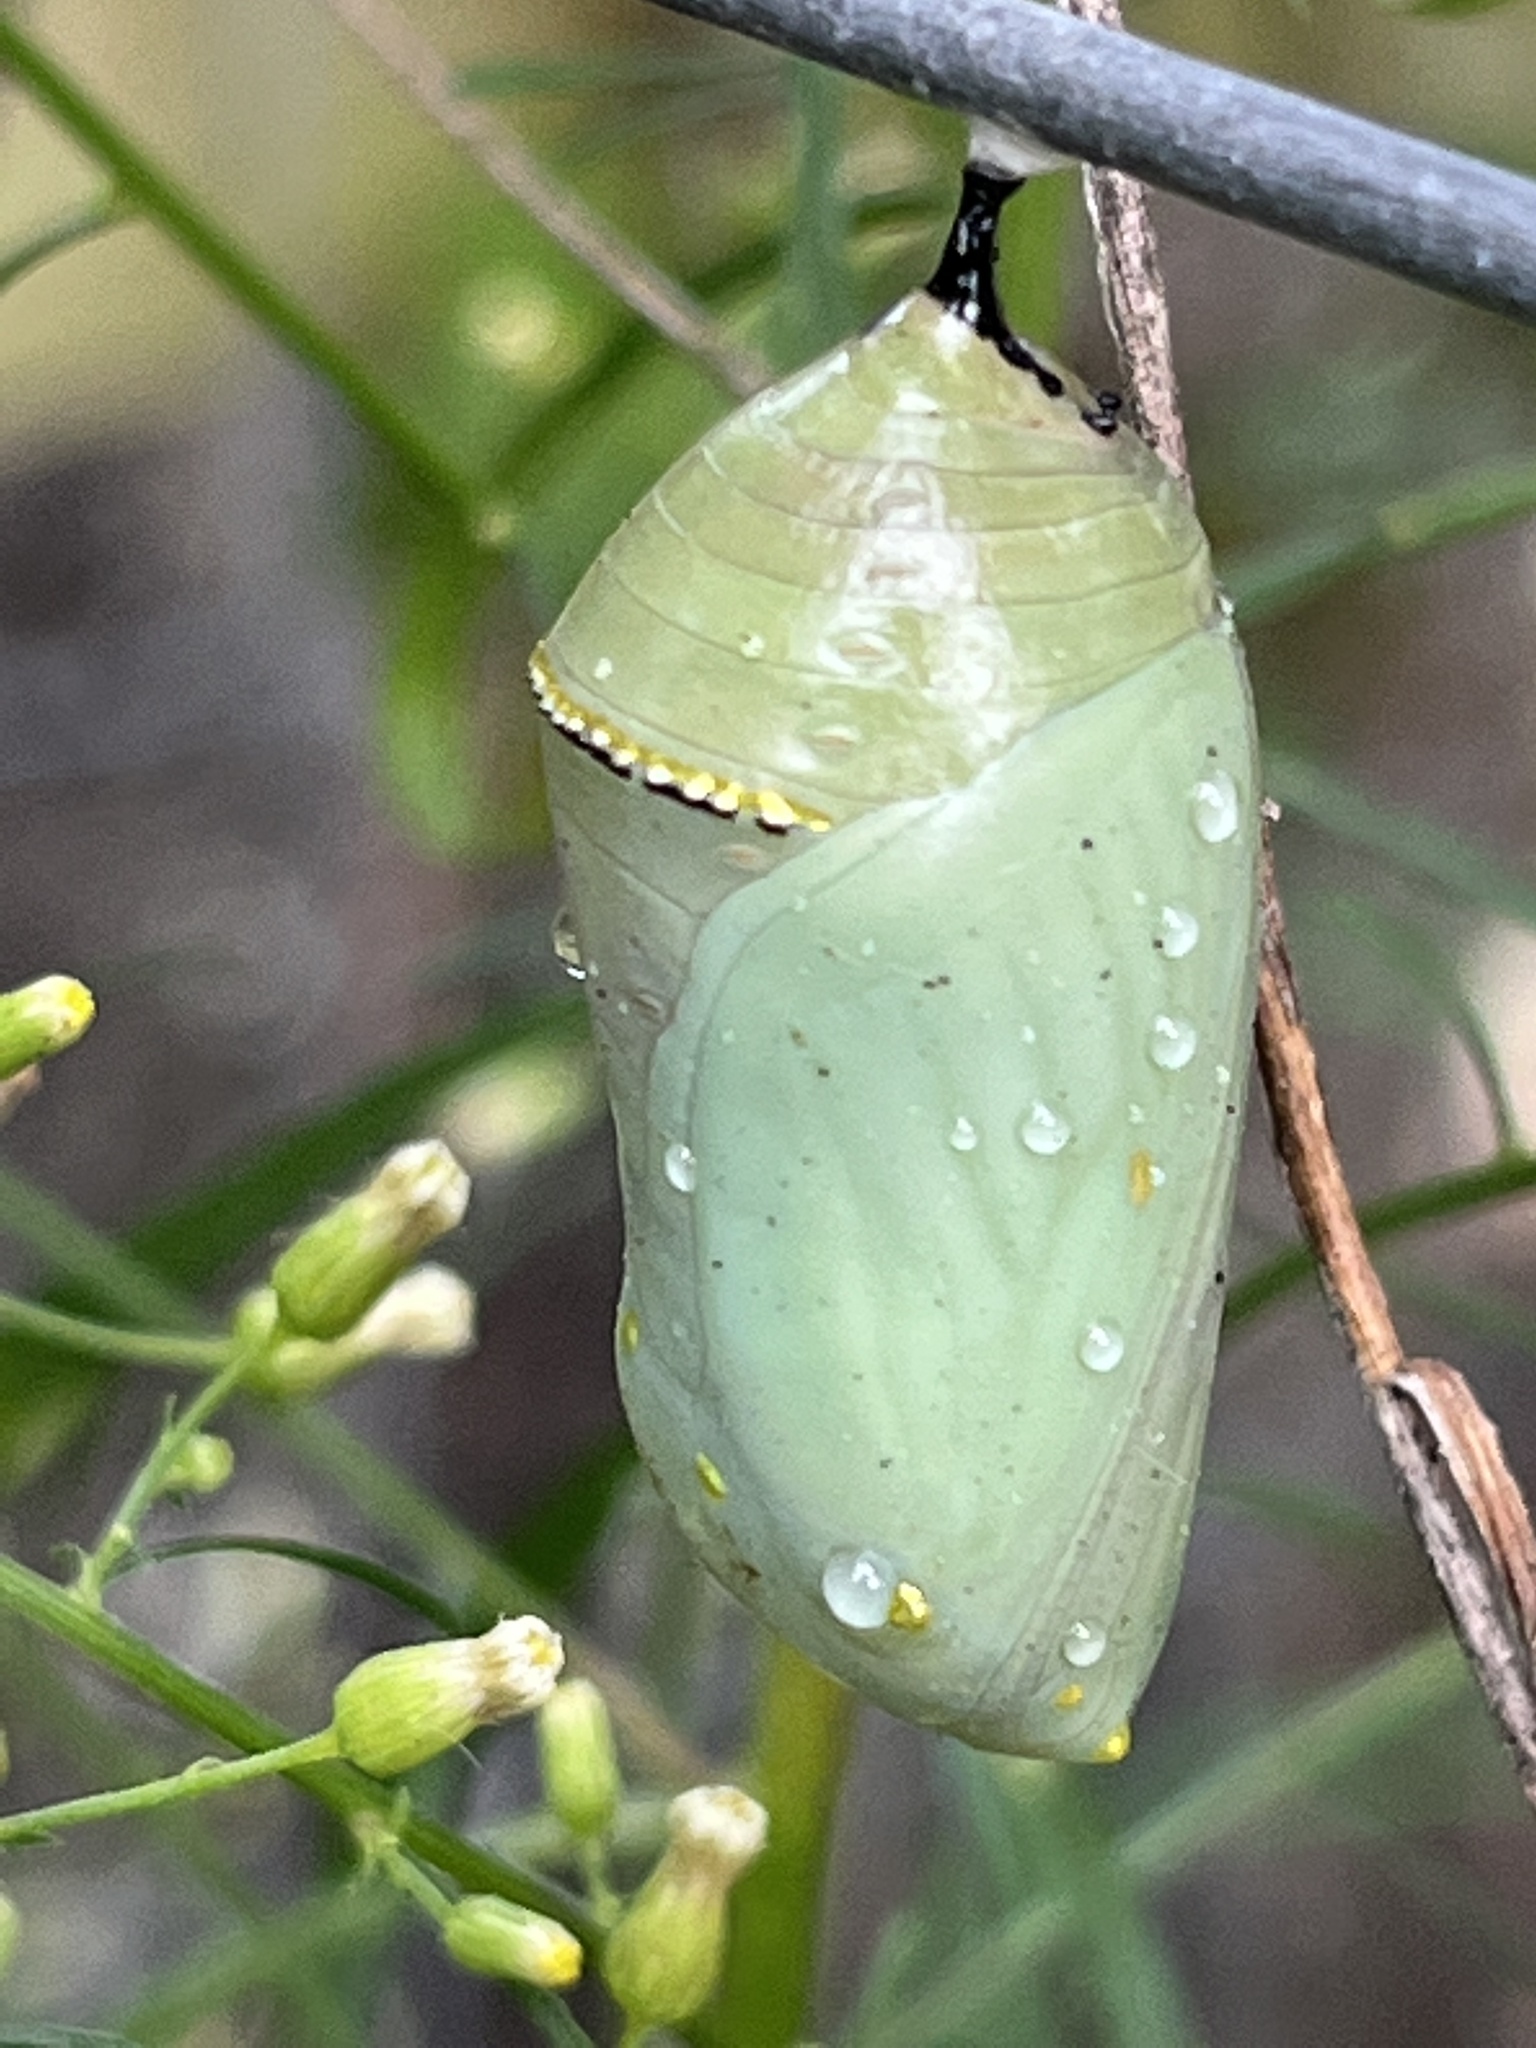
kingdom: Animalia
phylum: Arthropoda
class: Insecta
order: Lepidoptera
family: Nymphalidae
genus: Danaus
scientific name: Danaus plexippus
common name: Monarch
